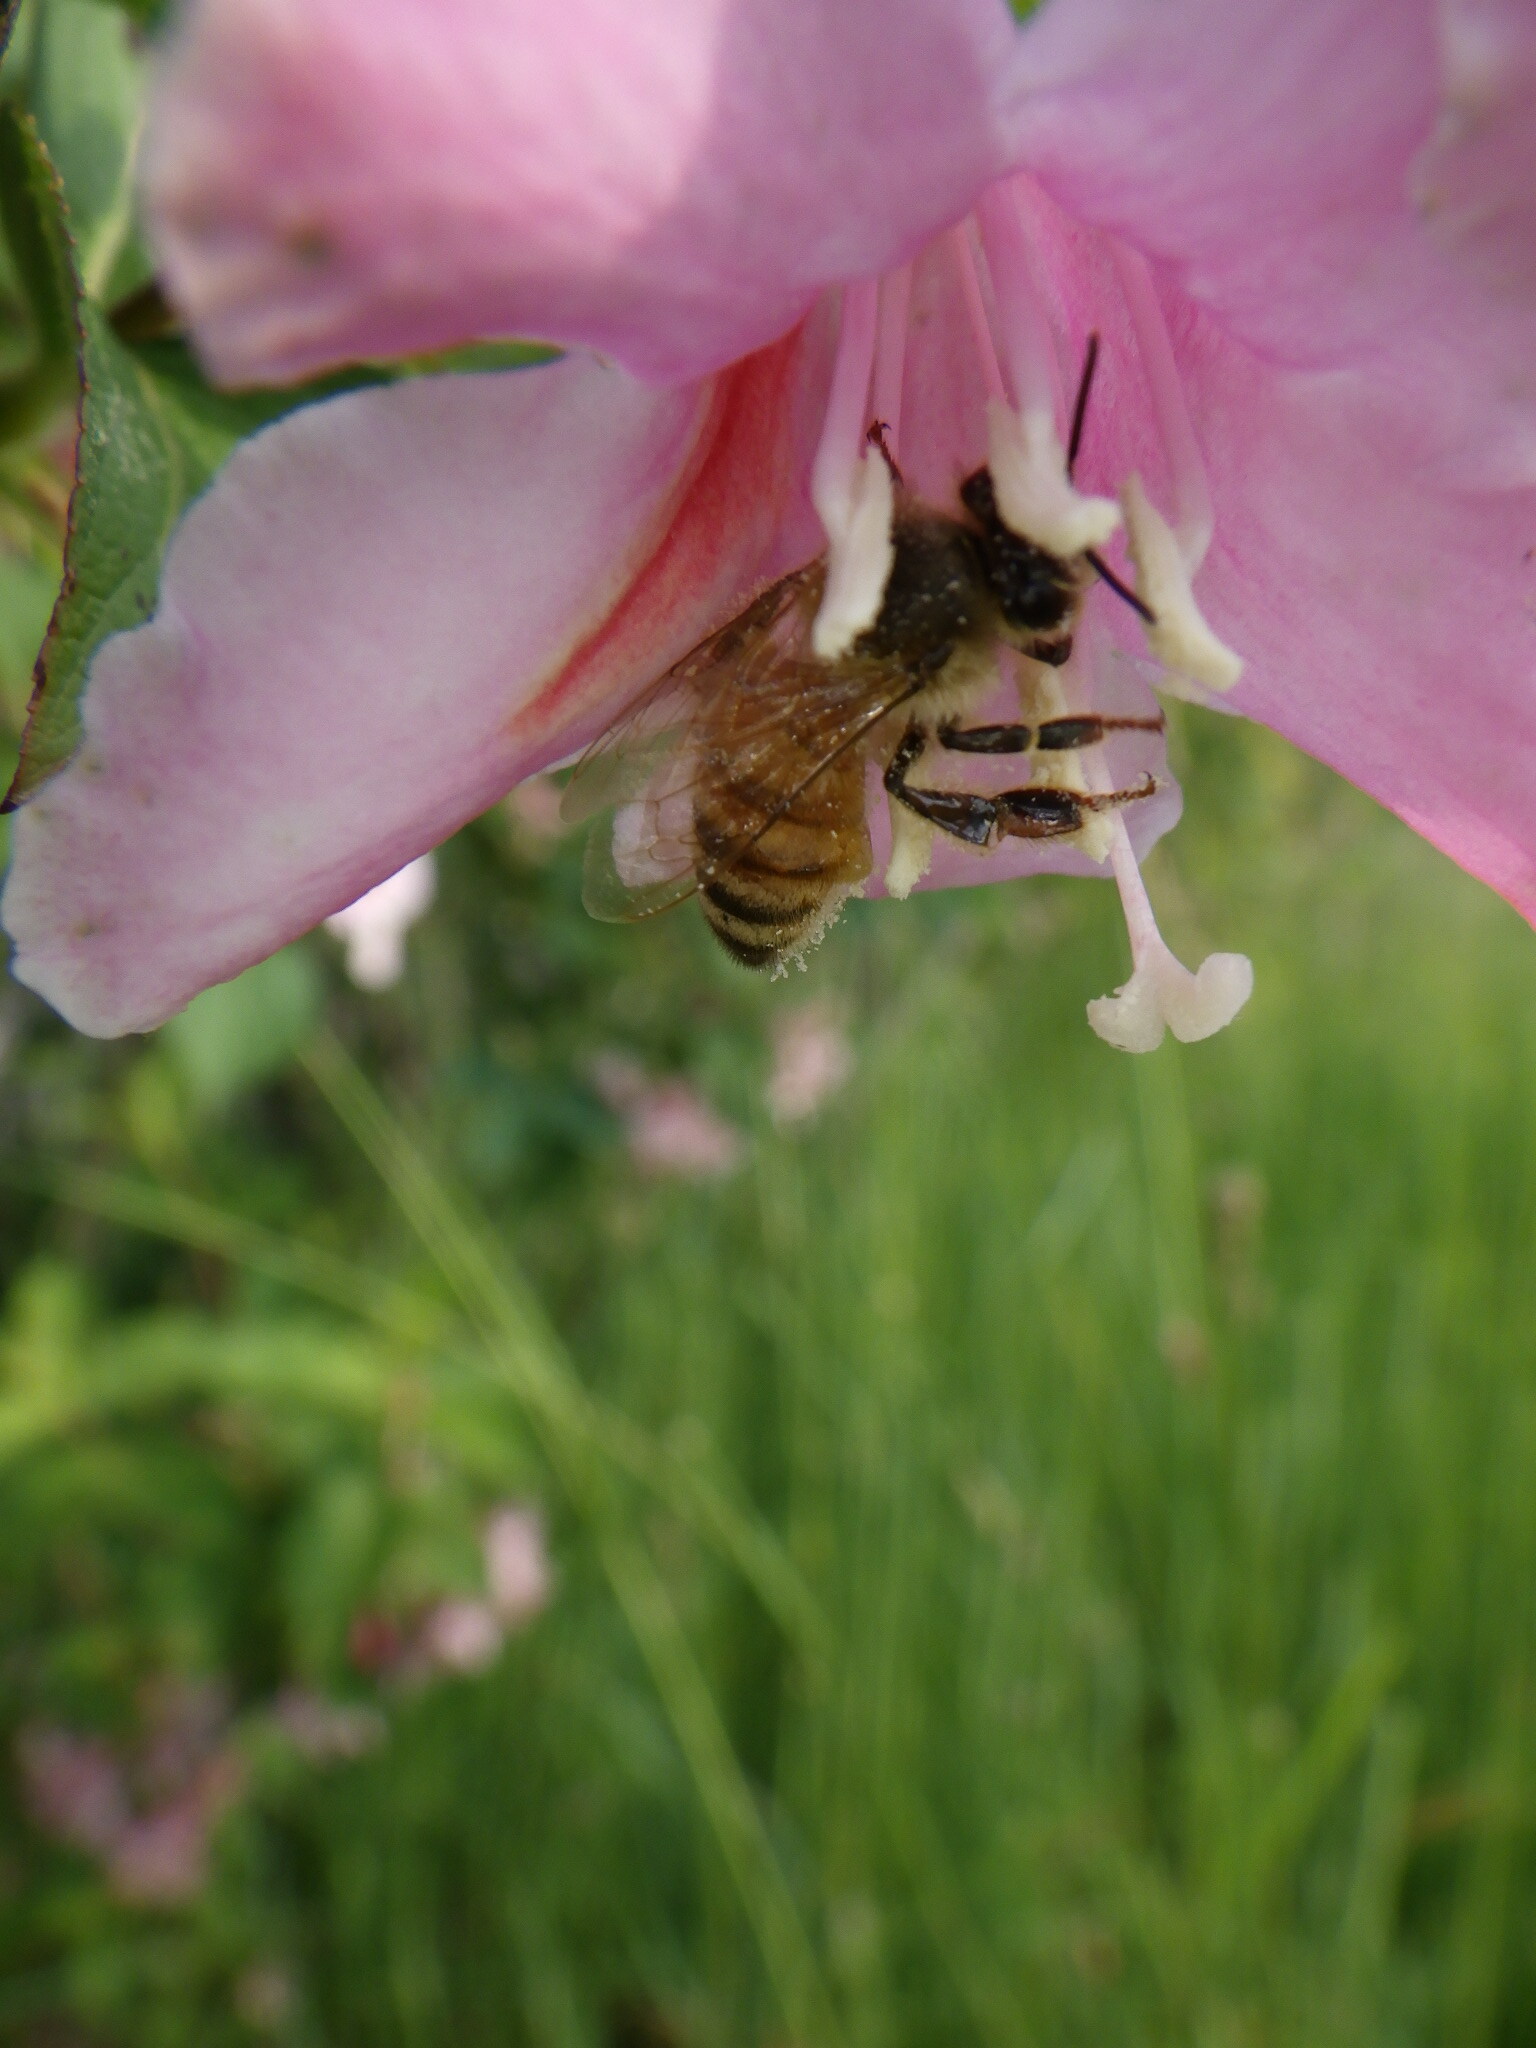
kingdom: Animalia
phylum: Arthropoda
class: Insecta
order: Hymenoptera
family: Apidae
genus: Apis
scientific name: Apis mellifera
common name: Honey bee
